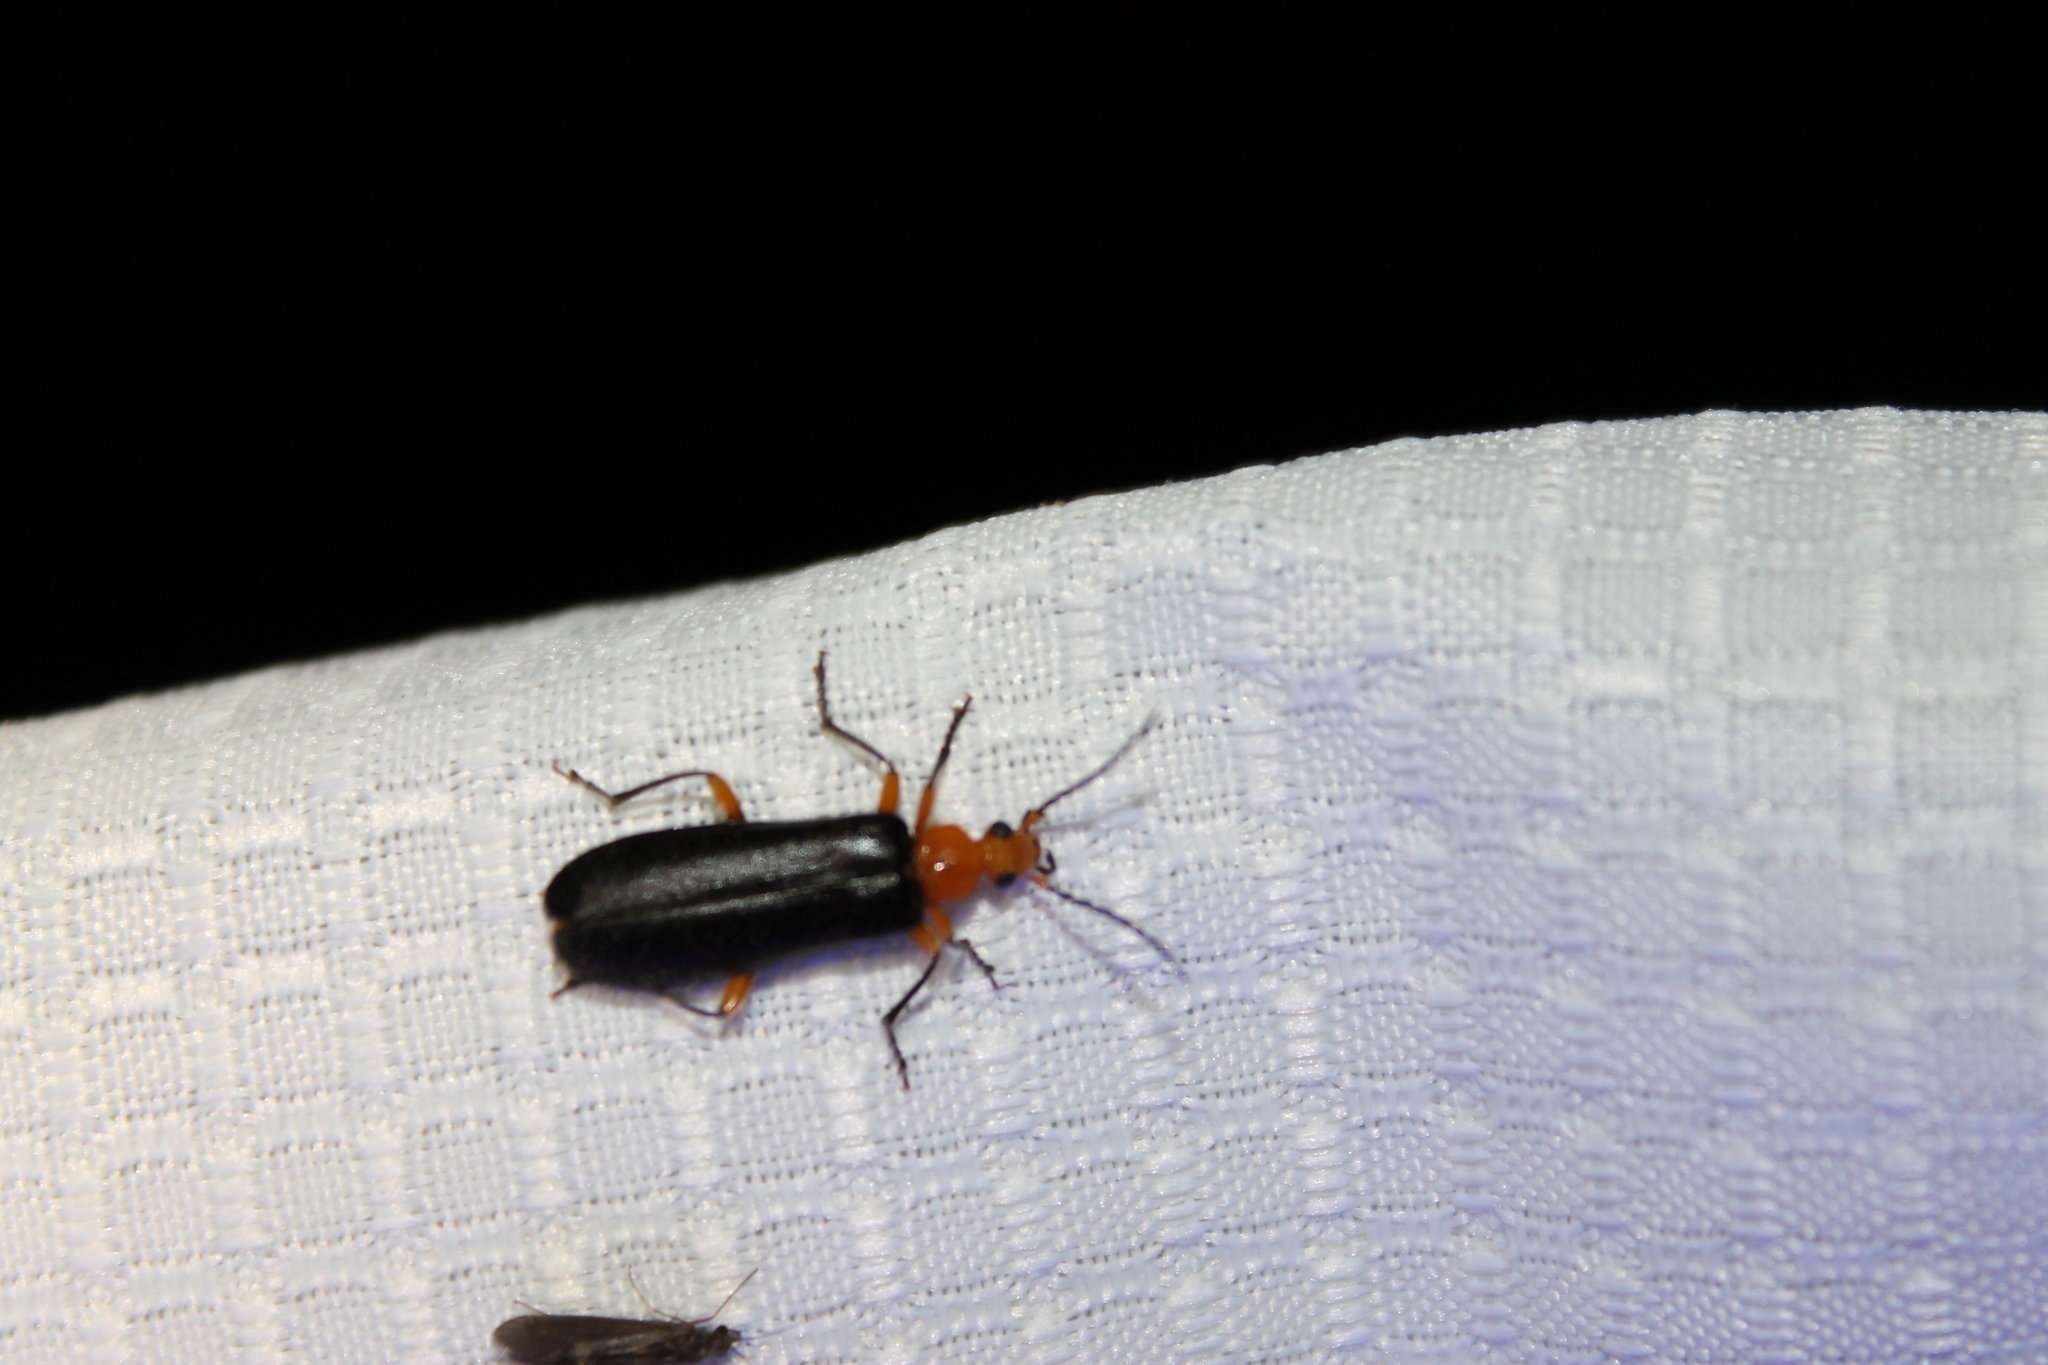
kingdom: Animalia
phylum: Arthropoda
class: Insecta
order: Coleoptera
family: Pyrochroidae
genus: Neopyrochroa
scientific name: Neopyrochroa femoralis
